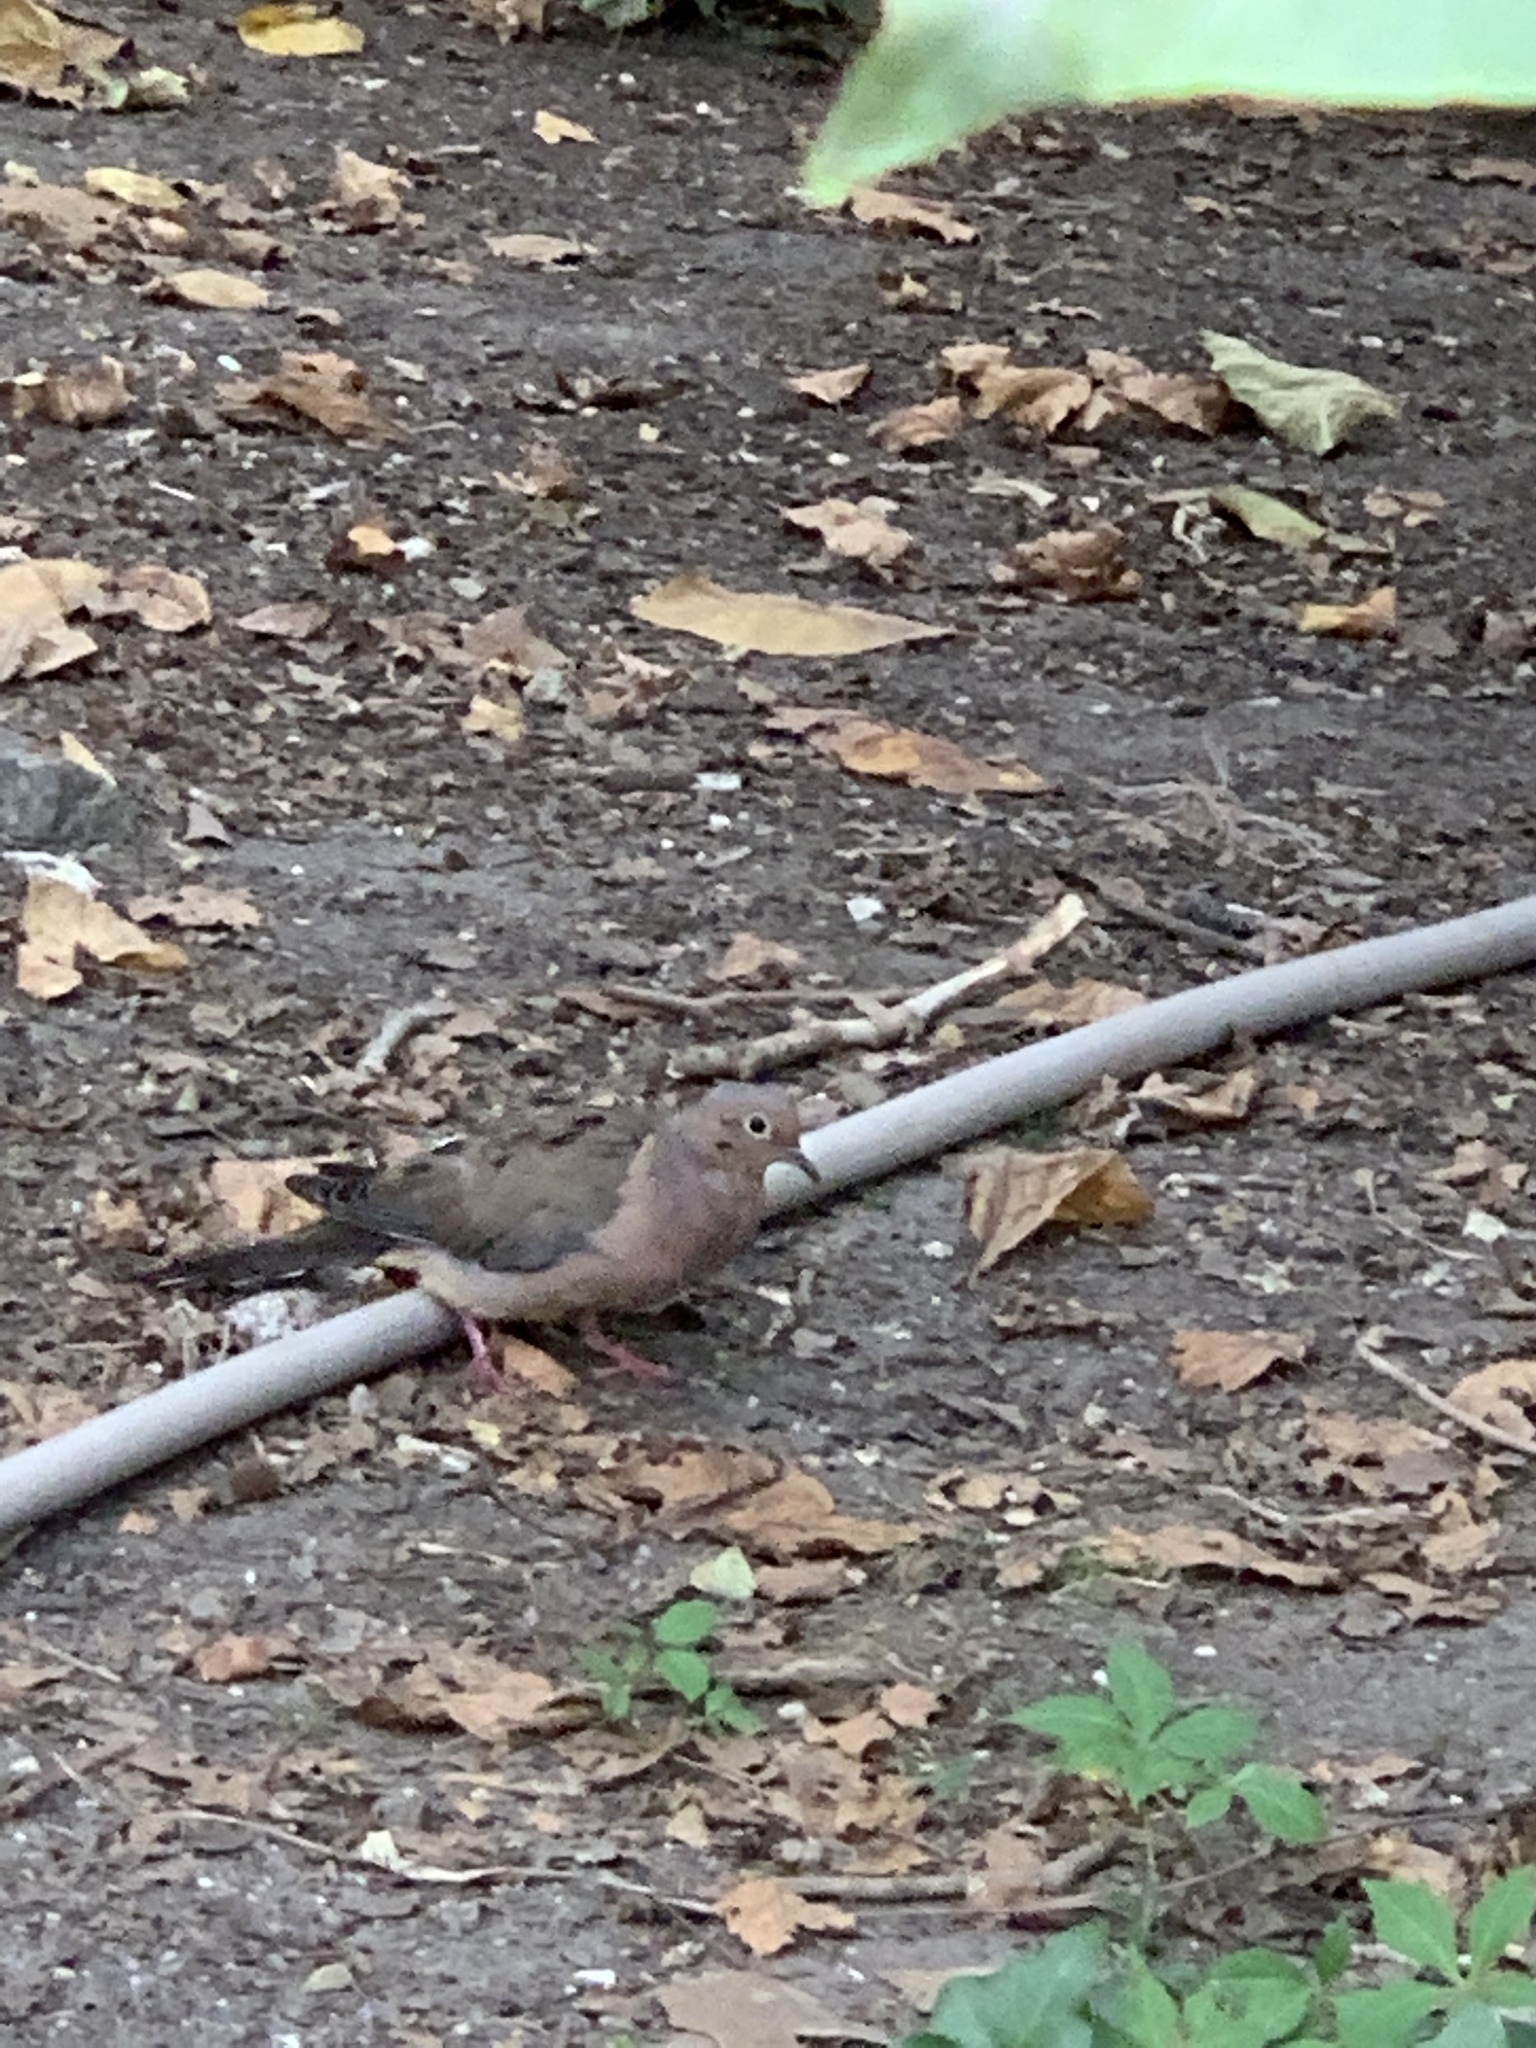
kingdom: Animalia
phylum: Chordata
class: Aves
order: Columbiformes
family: Columbidae
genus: Zenaida
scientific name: Zenaida macroura
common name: Mourning dove
